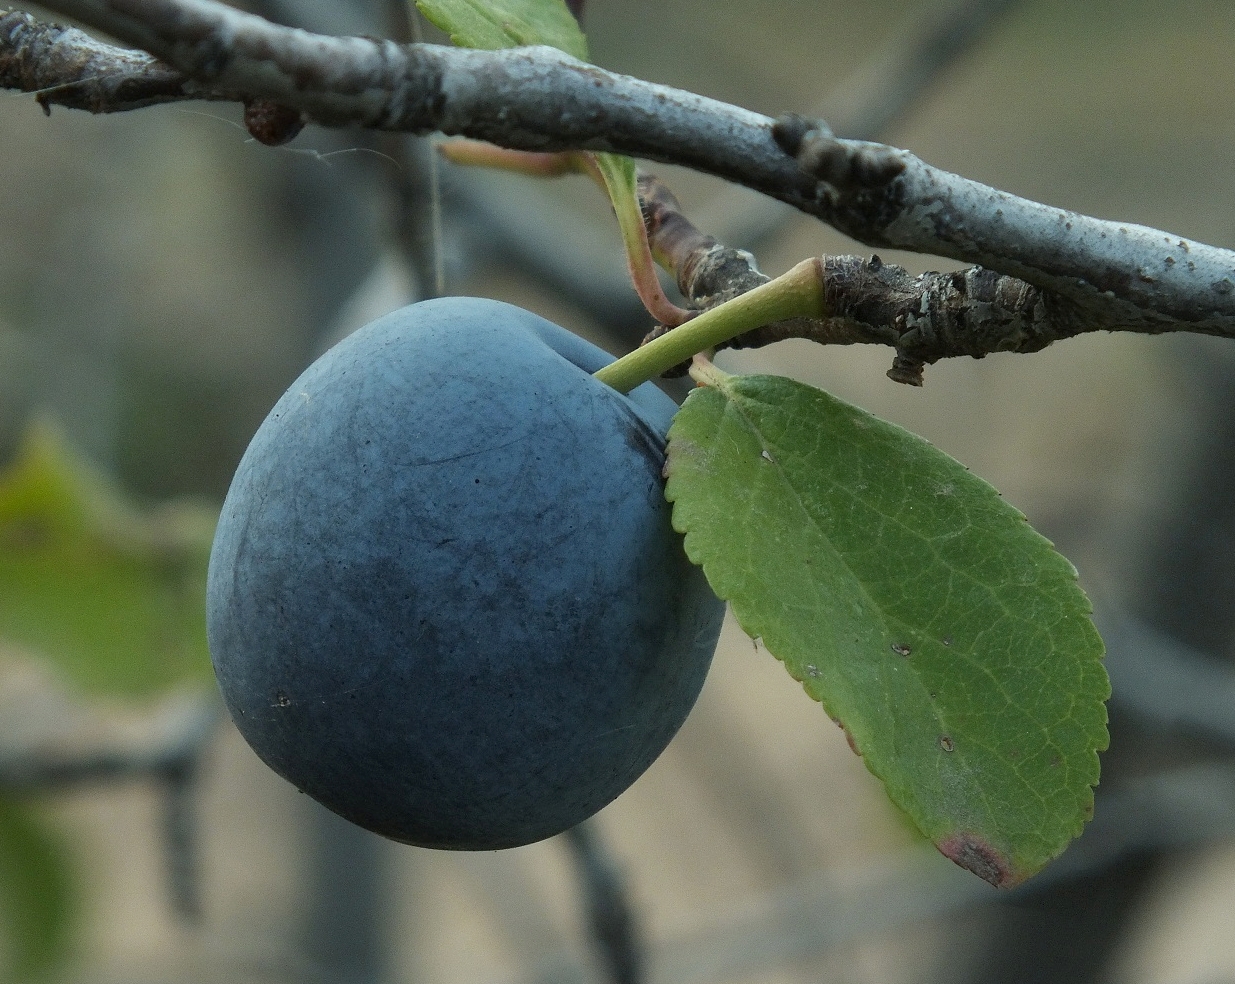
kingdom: Plantae
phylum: Tracheophyta
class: Magnoliopsida
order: Rosales
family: Rosaceae
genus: Prunus
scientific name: Prunus spinosa
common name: Blackthorn
